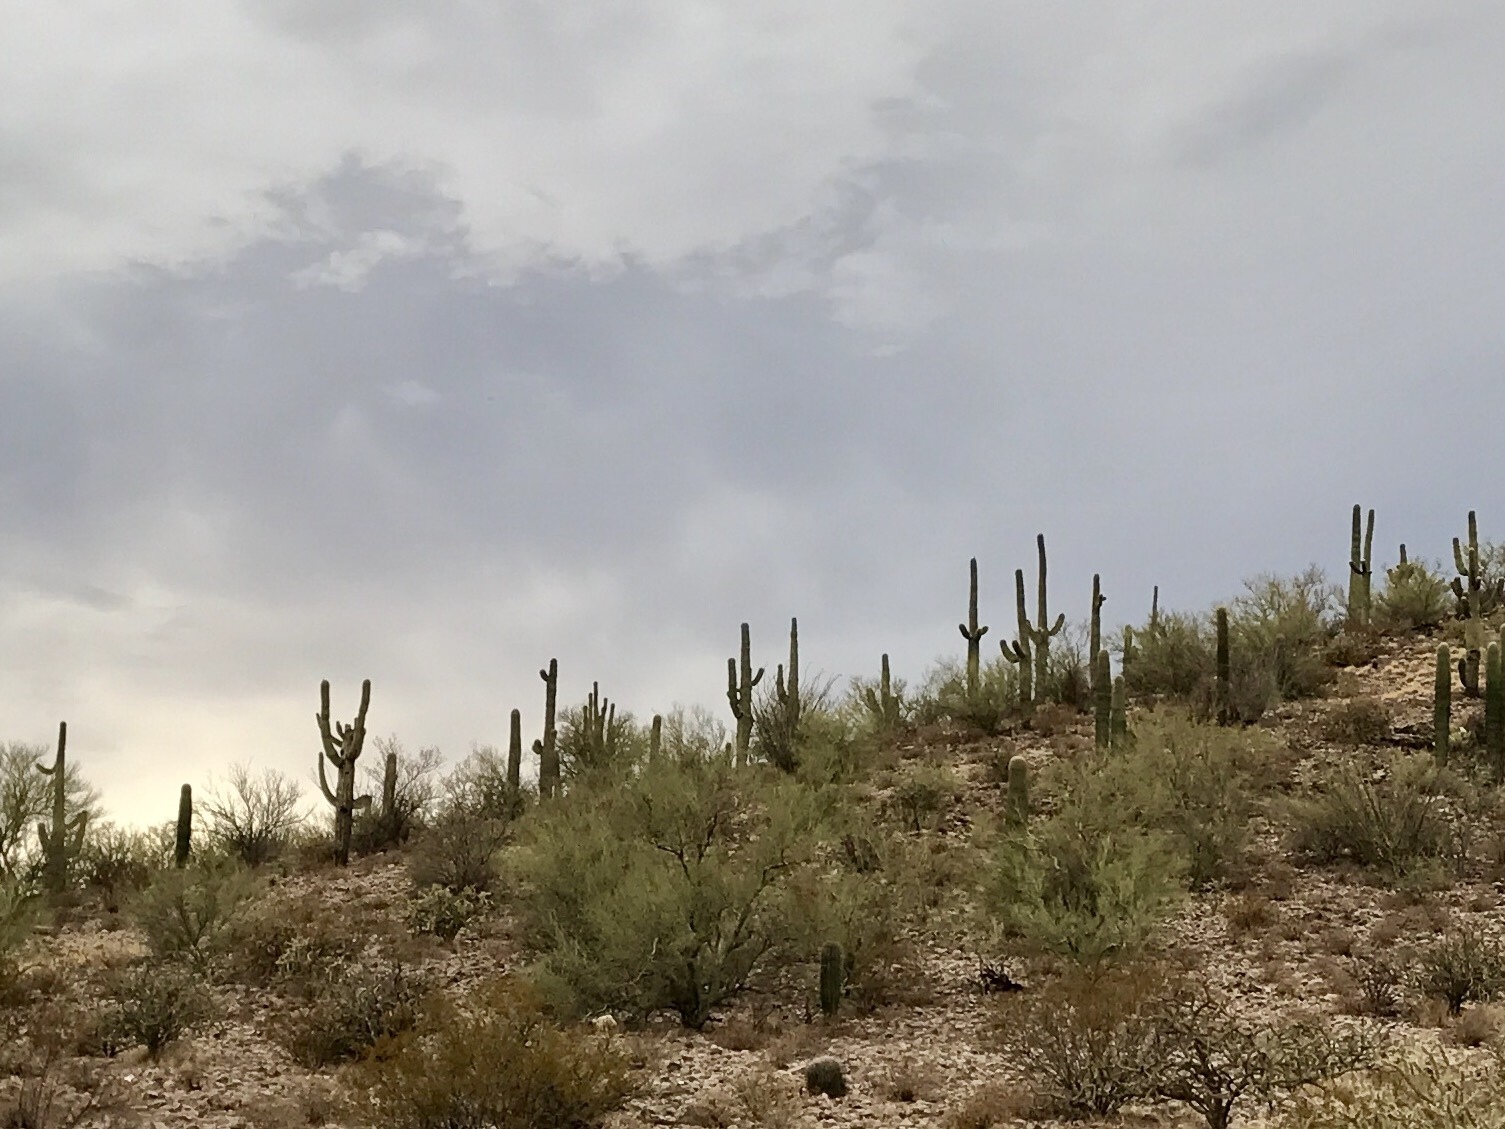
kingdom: Plantae
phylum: Tracheophyta
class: Magnoliopsida
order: Caryophyllales
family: Cactaceae
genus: Carnegiea
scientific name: Carnegiea gigantea
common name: Saguaro
